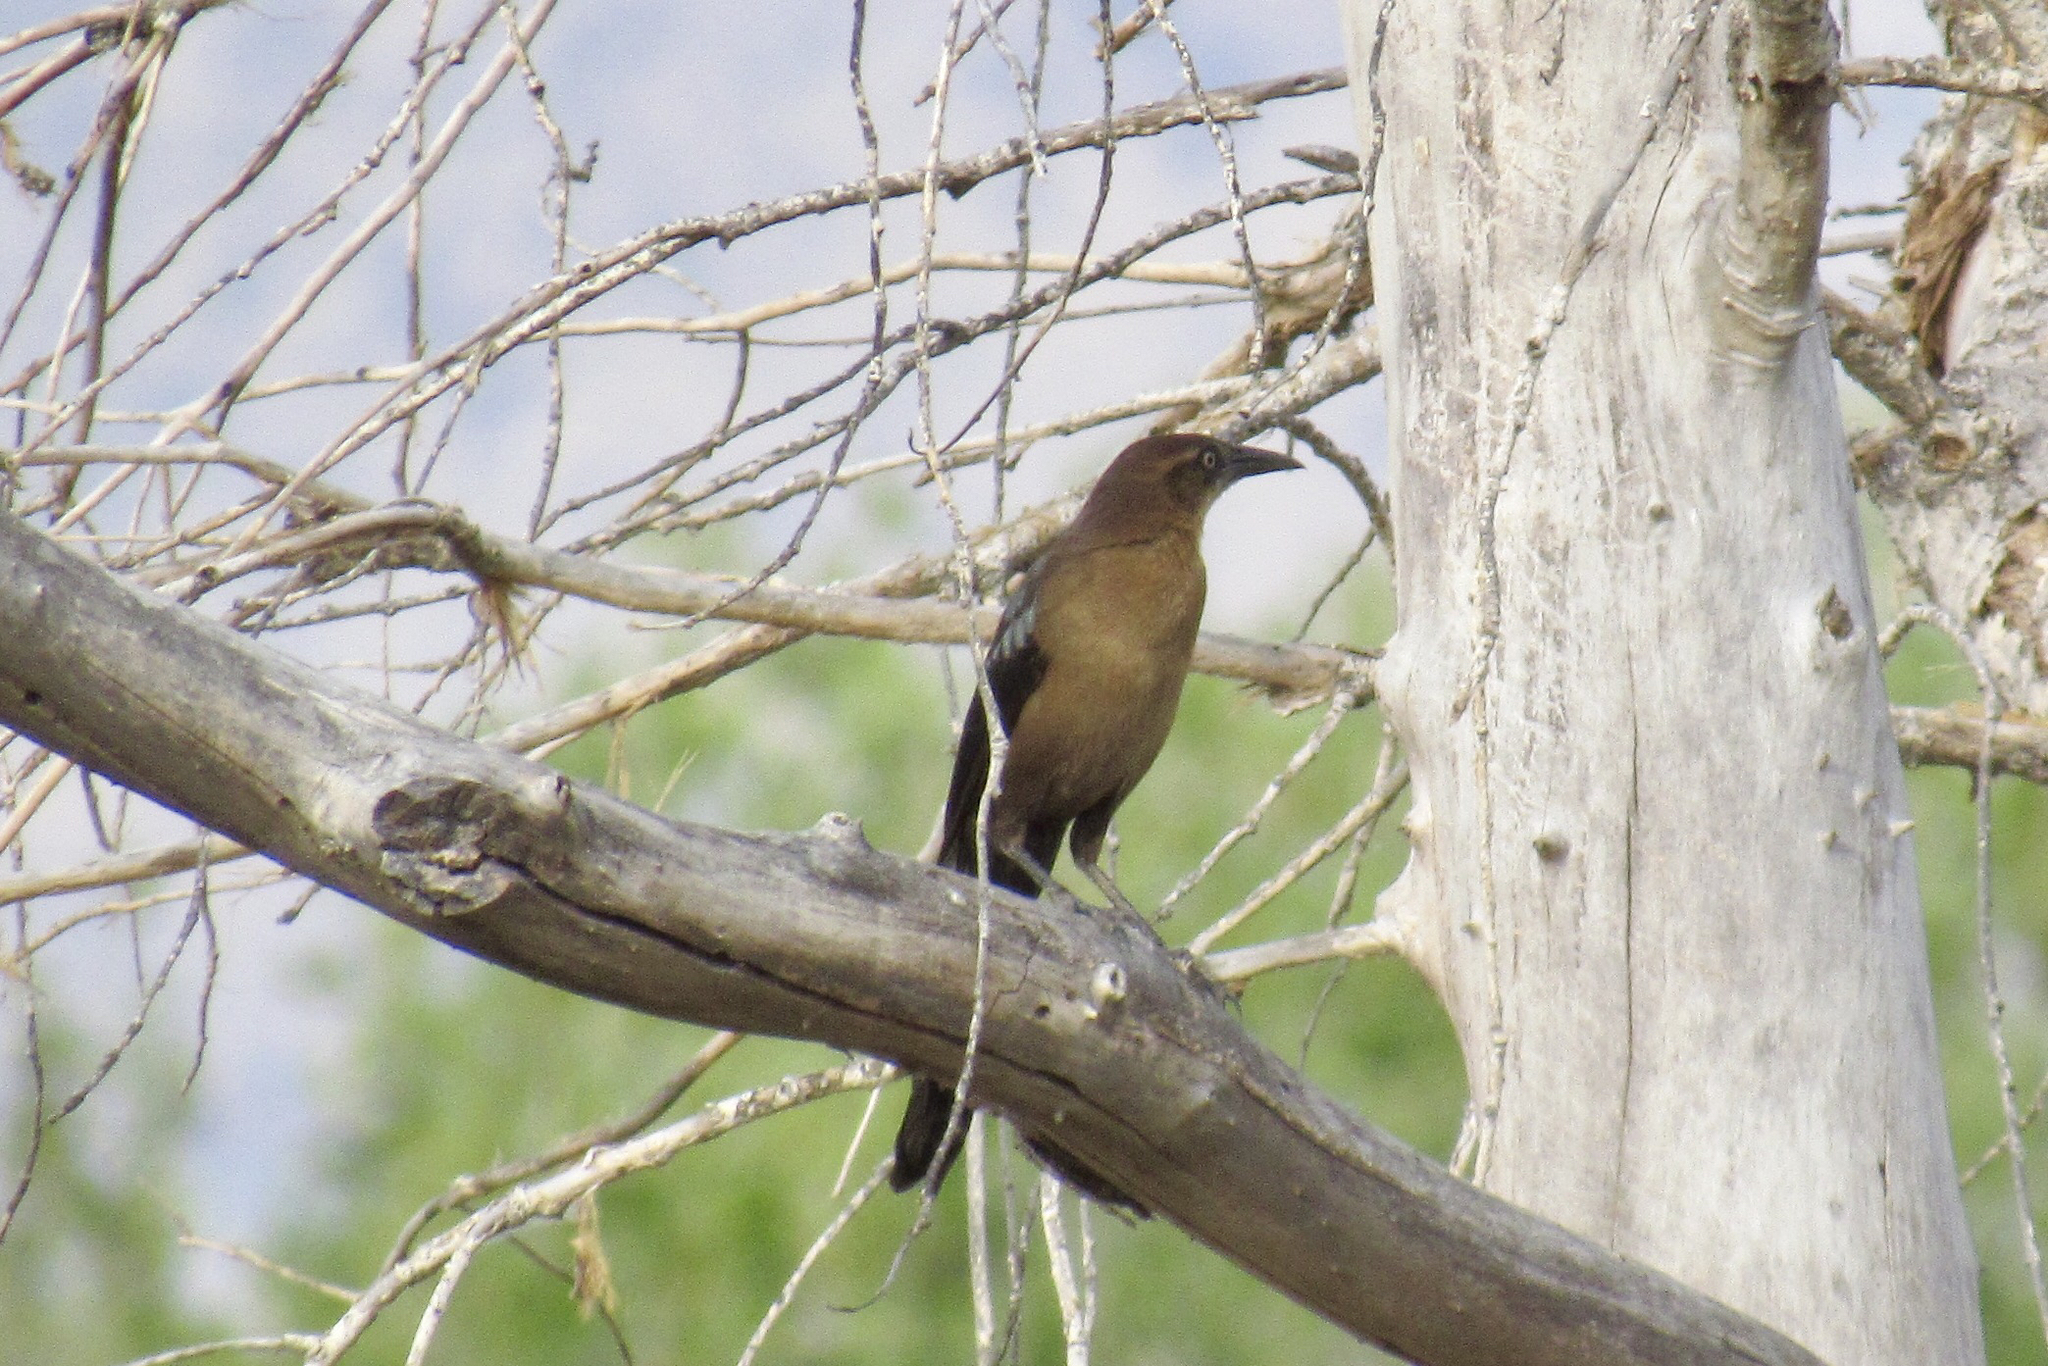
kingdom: Animalia
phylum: Chordata
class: Aves
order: Passeriformes
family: Icteridae
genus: Quiscalus
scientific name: Quiscalus mexicanus
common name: Great-tailed grackle
